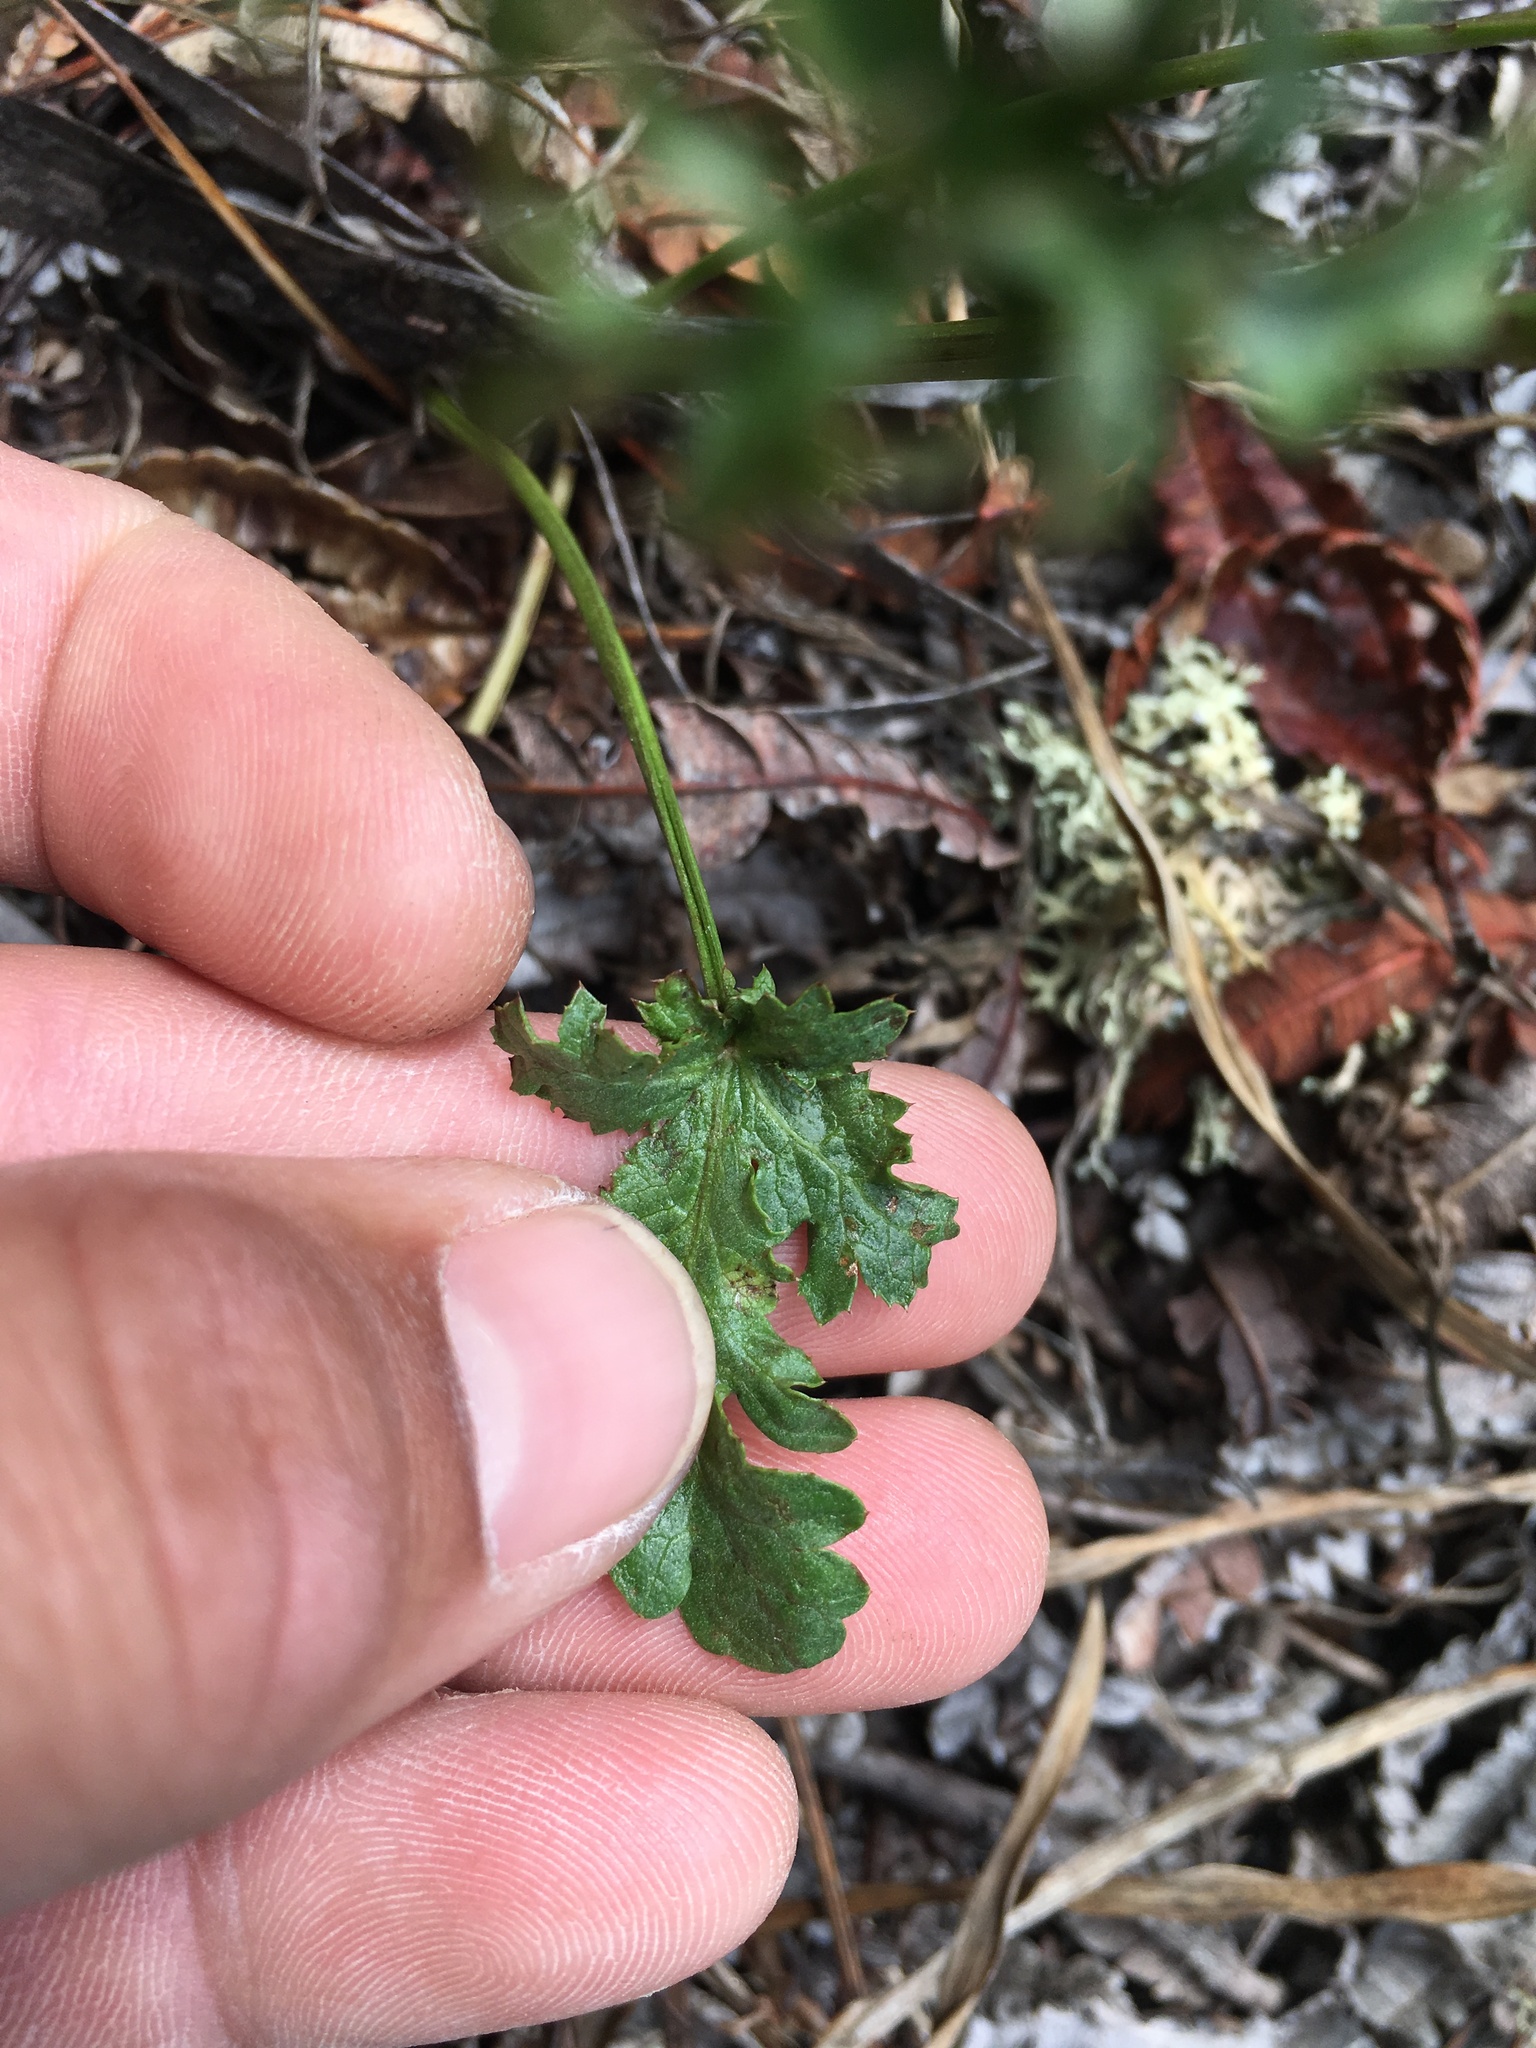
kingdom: Plantae
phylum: Tracheophyta
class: Magnoliopsida
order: Apiales
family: Apiaceae
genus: Sanicula
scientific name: Sanicula arguta
